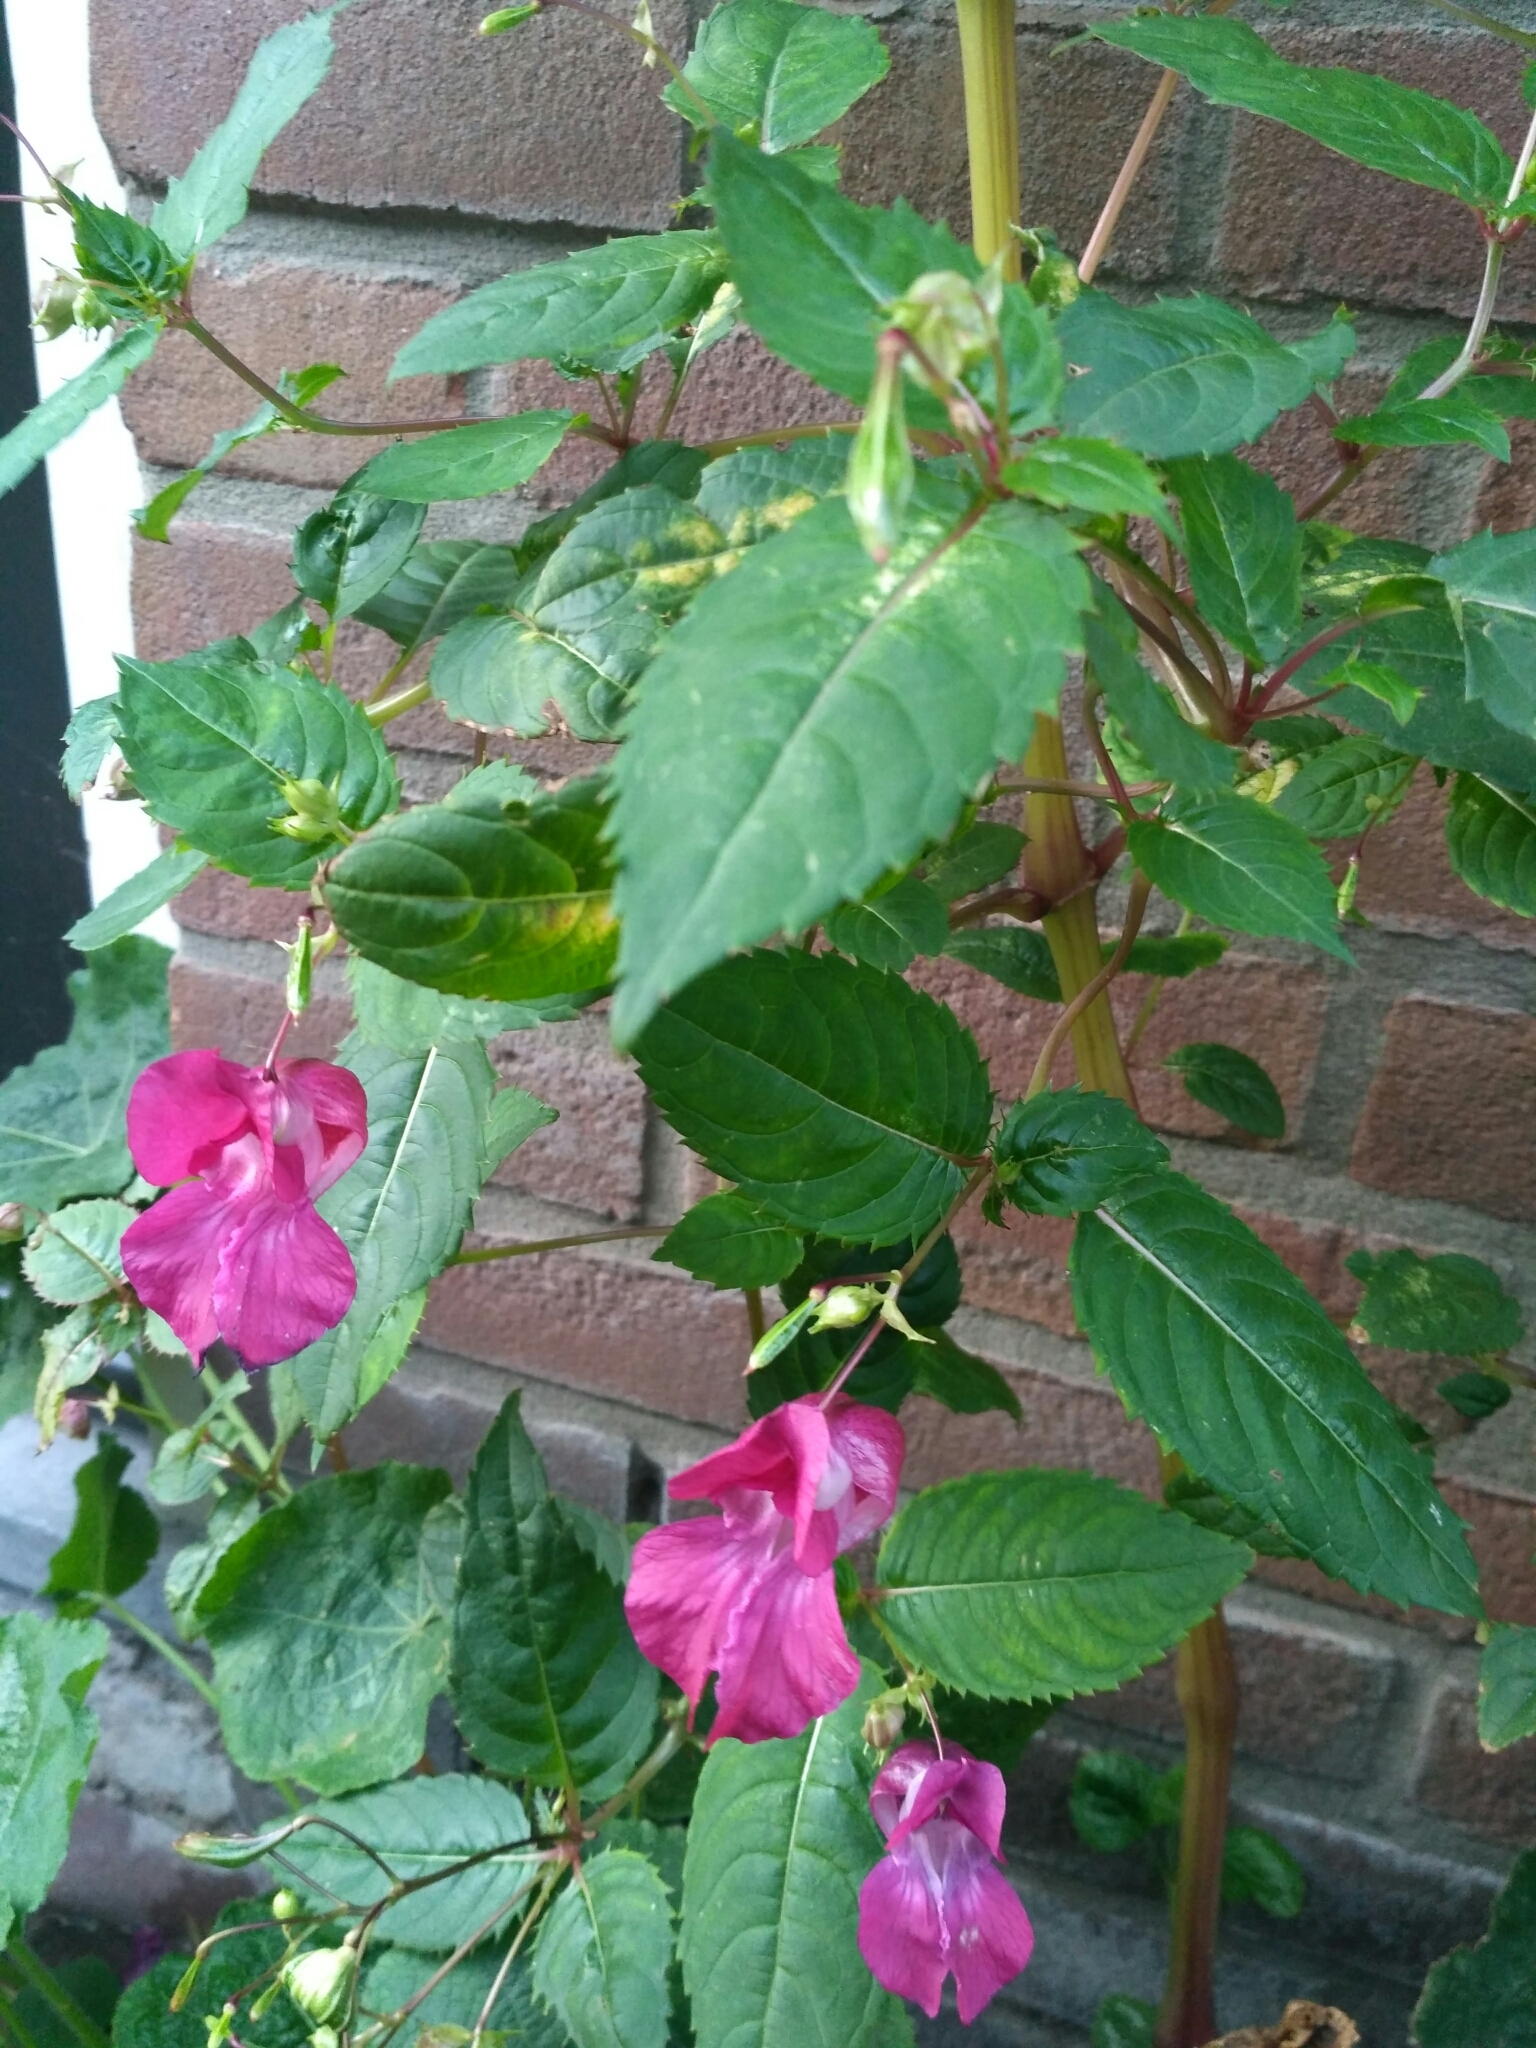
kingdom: Plantae
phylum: Tracheophyta
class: Magnoliopsida
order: Ericales
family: Balsaminaceae
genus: Impatiens
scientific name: Impatiens glandulifera
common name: Himalayan balsam
